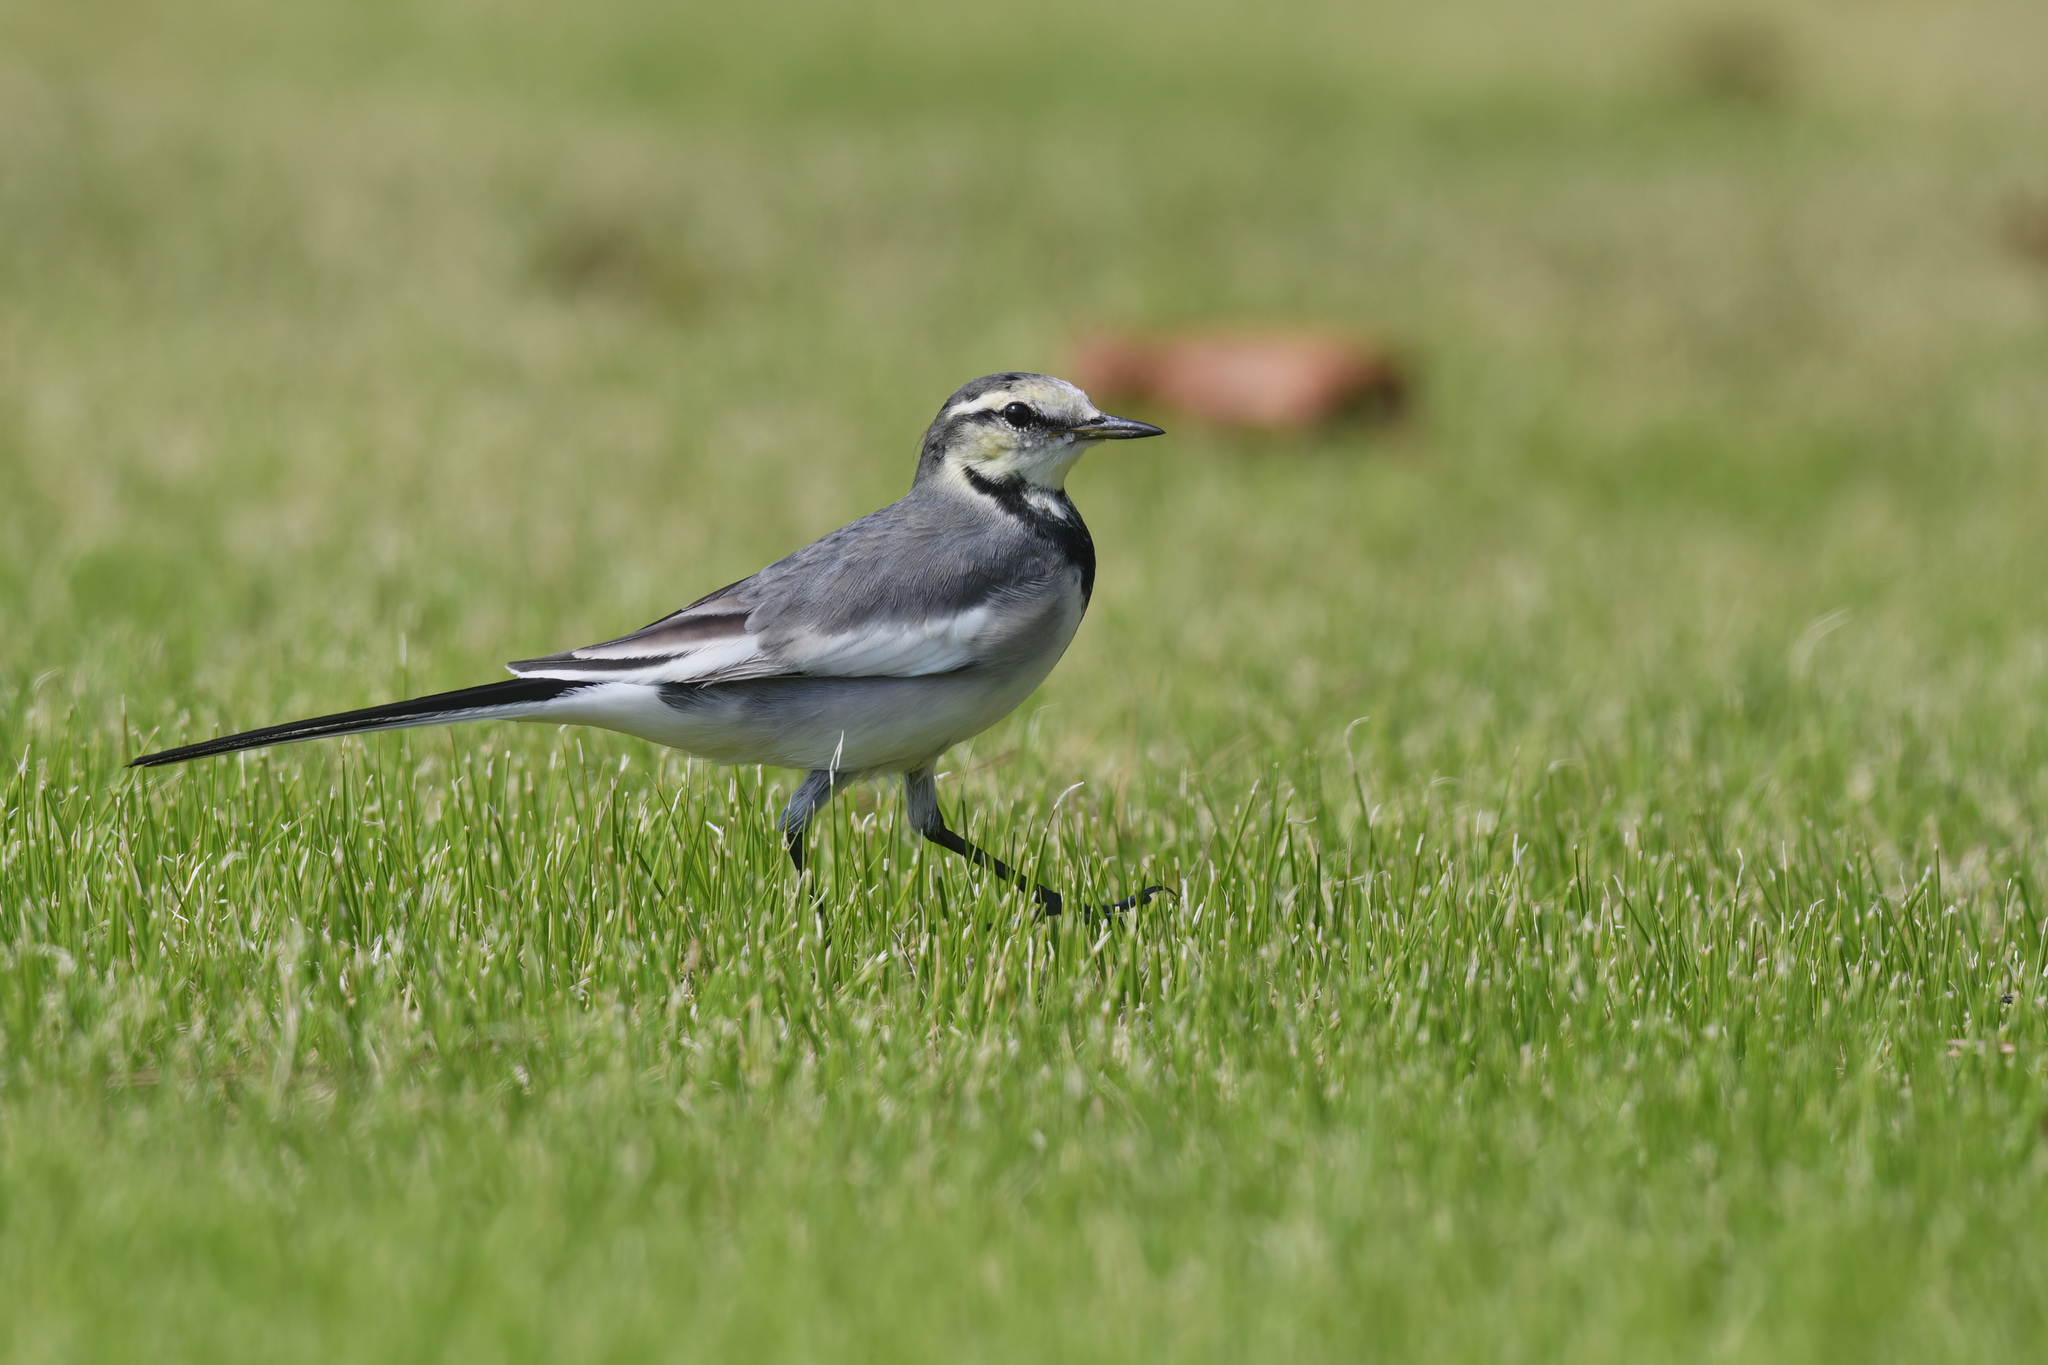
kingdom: Animalia
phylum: Chordata
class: Aves
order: Passeriformes
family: Motacillidae
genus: Motacilla
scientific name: Motacilla alba
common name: White wagtail
